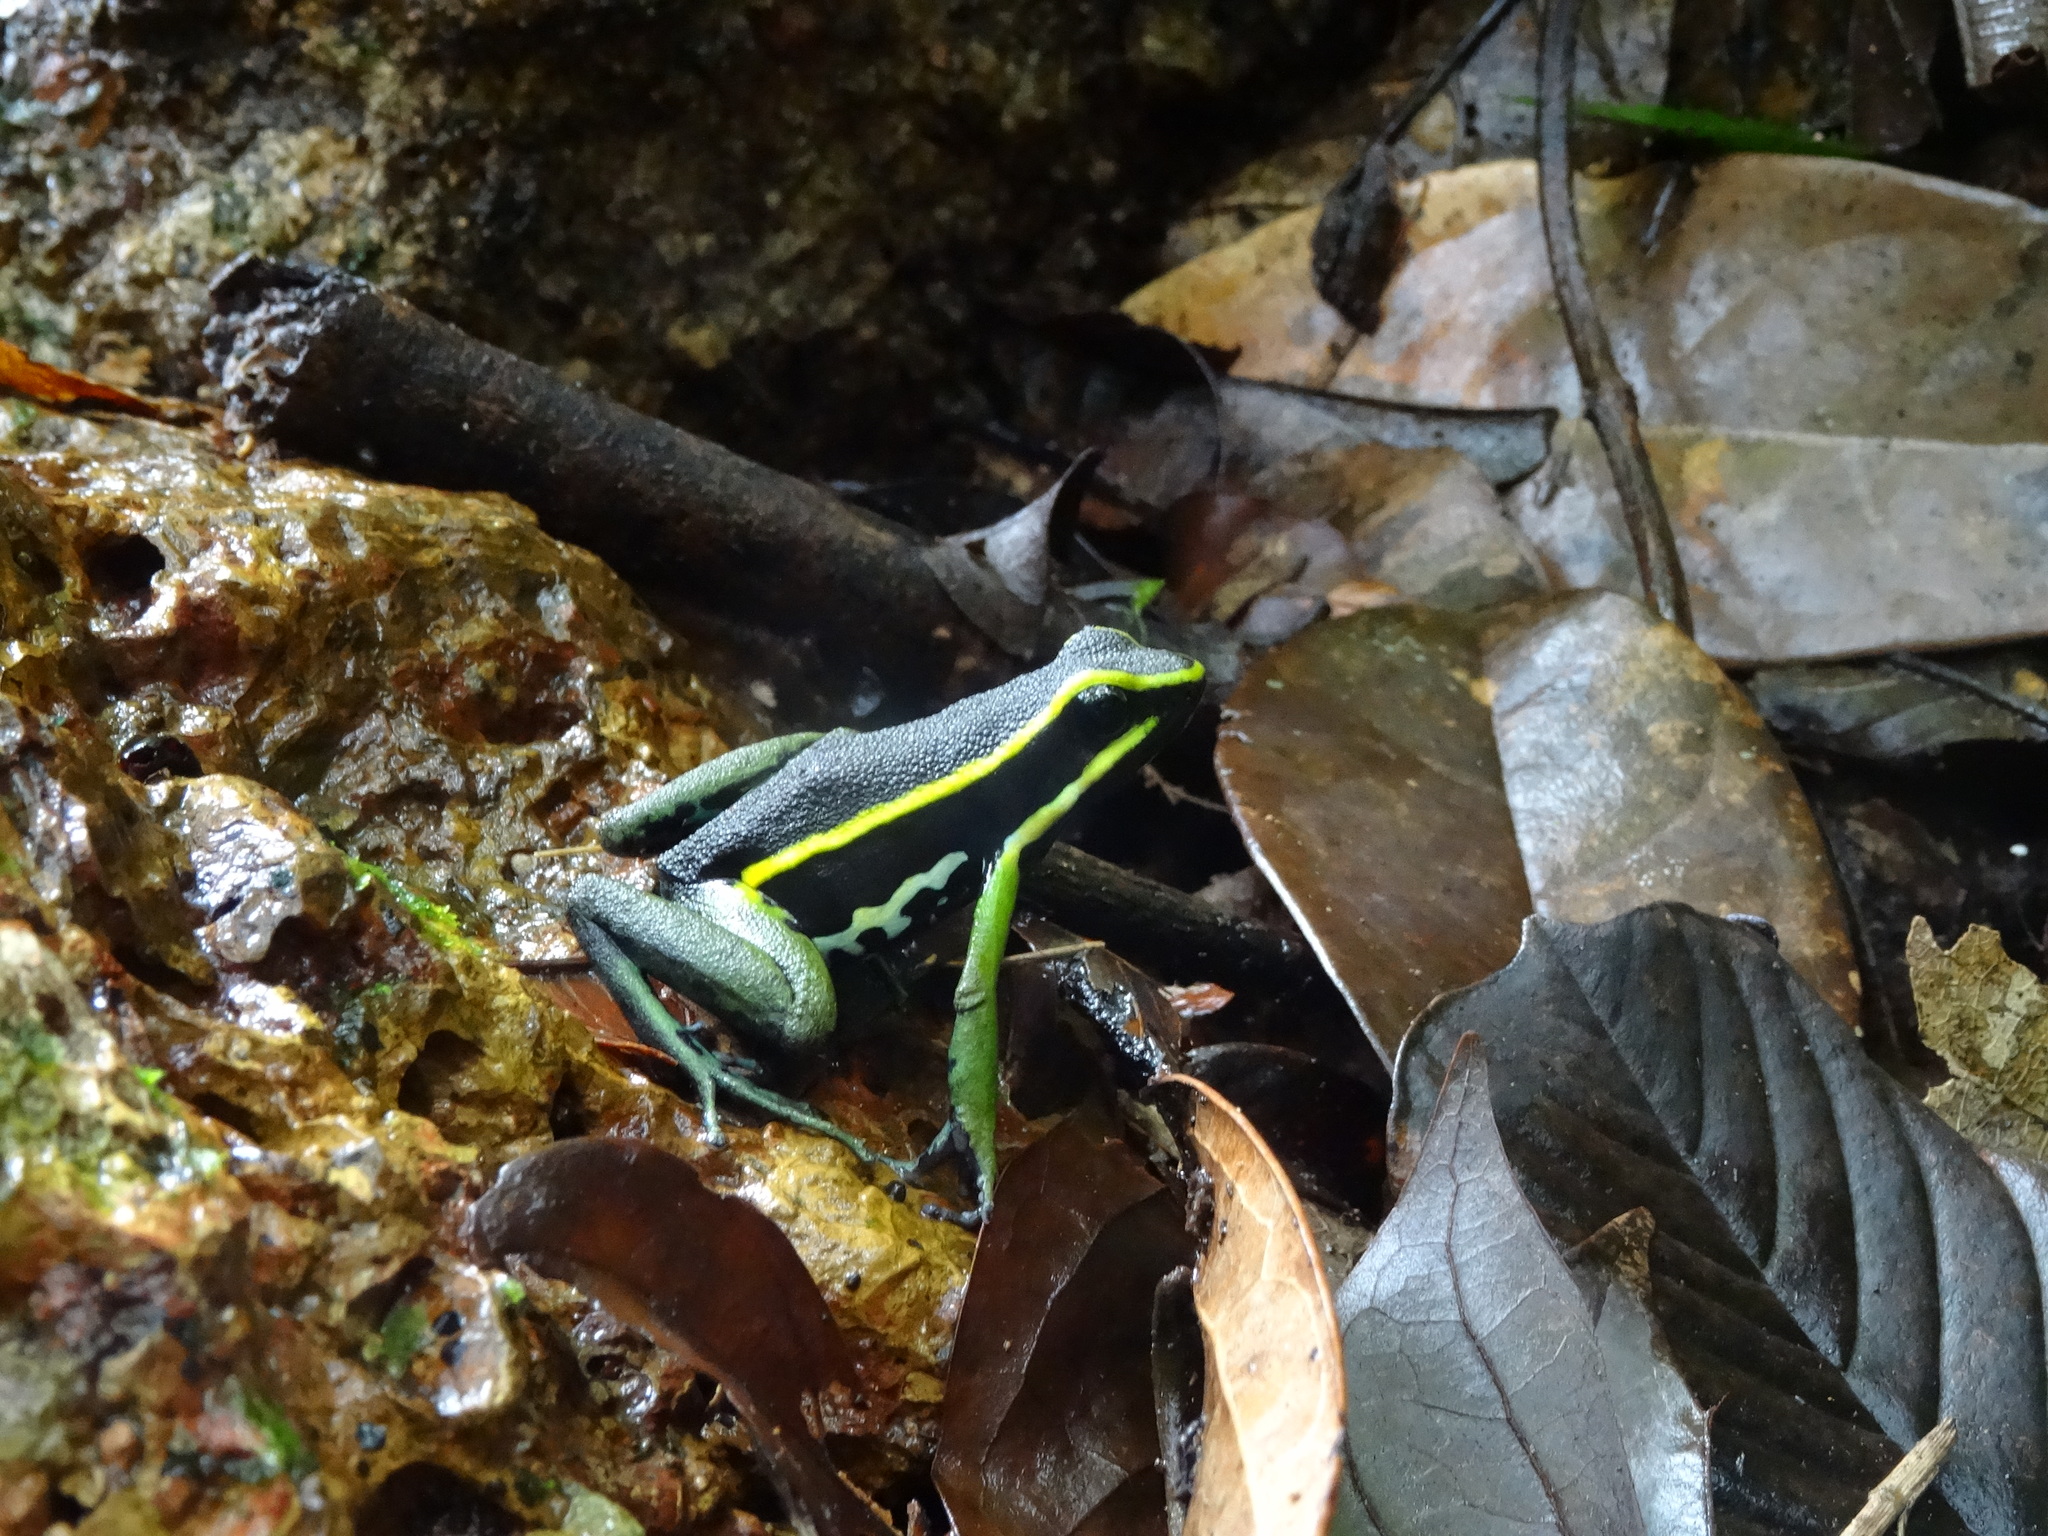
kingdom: Animalia
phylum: Chordata
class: Amphibia
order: Anura
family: Dendrobatidae
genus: Ameerega
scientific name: Ameerega trivittata
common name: Three-striped arrow-poison frog
